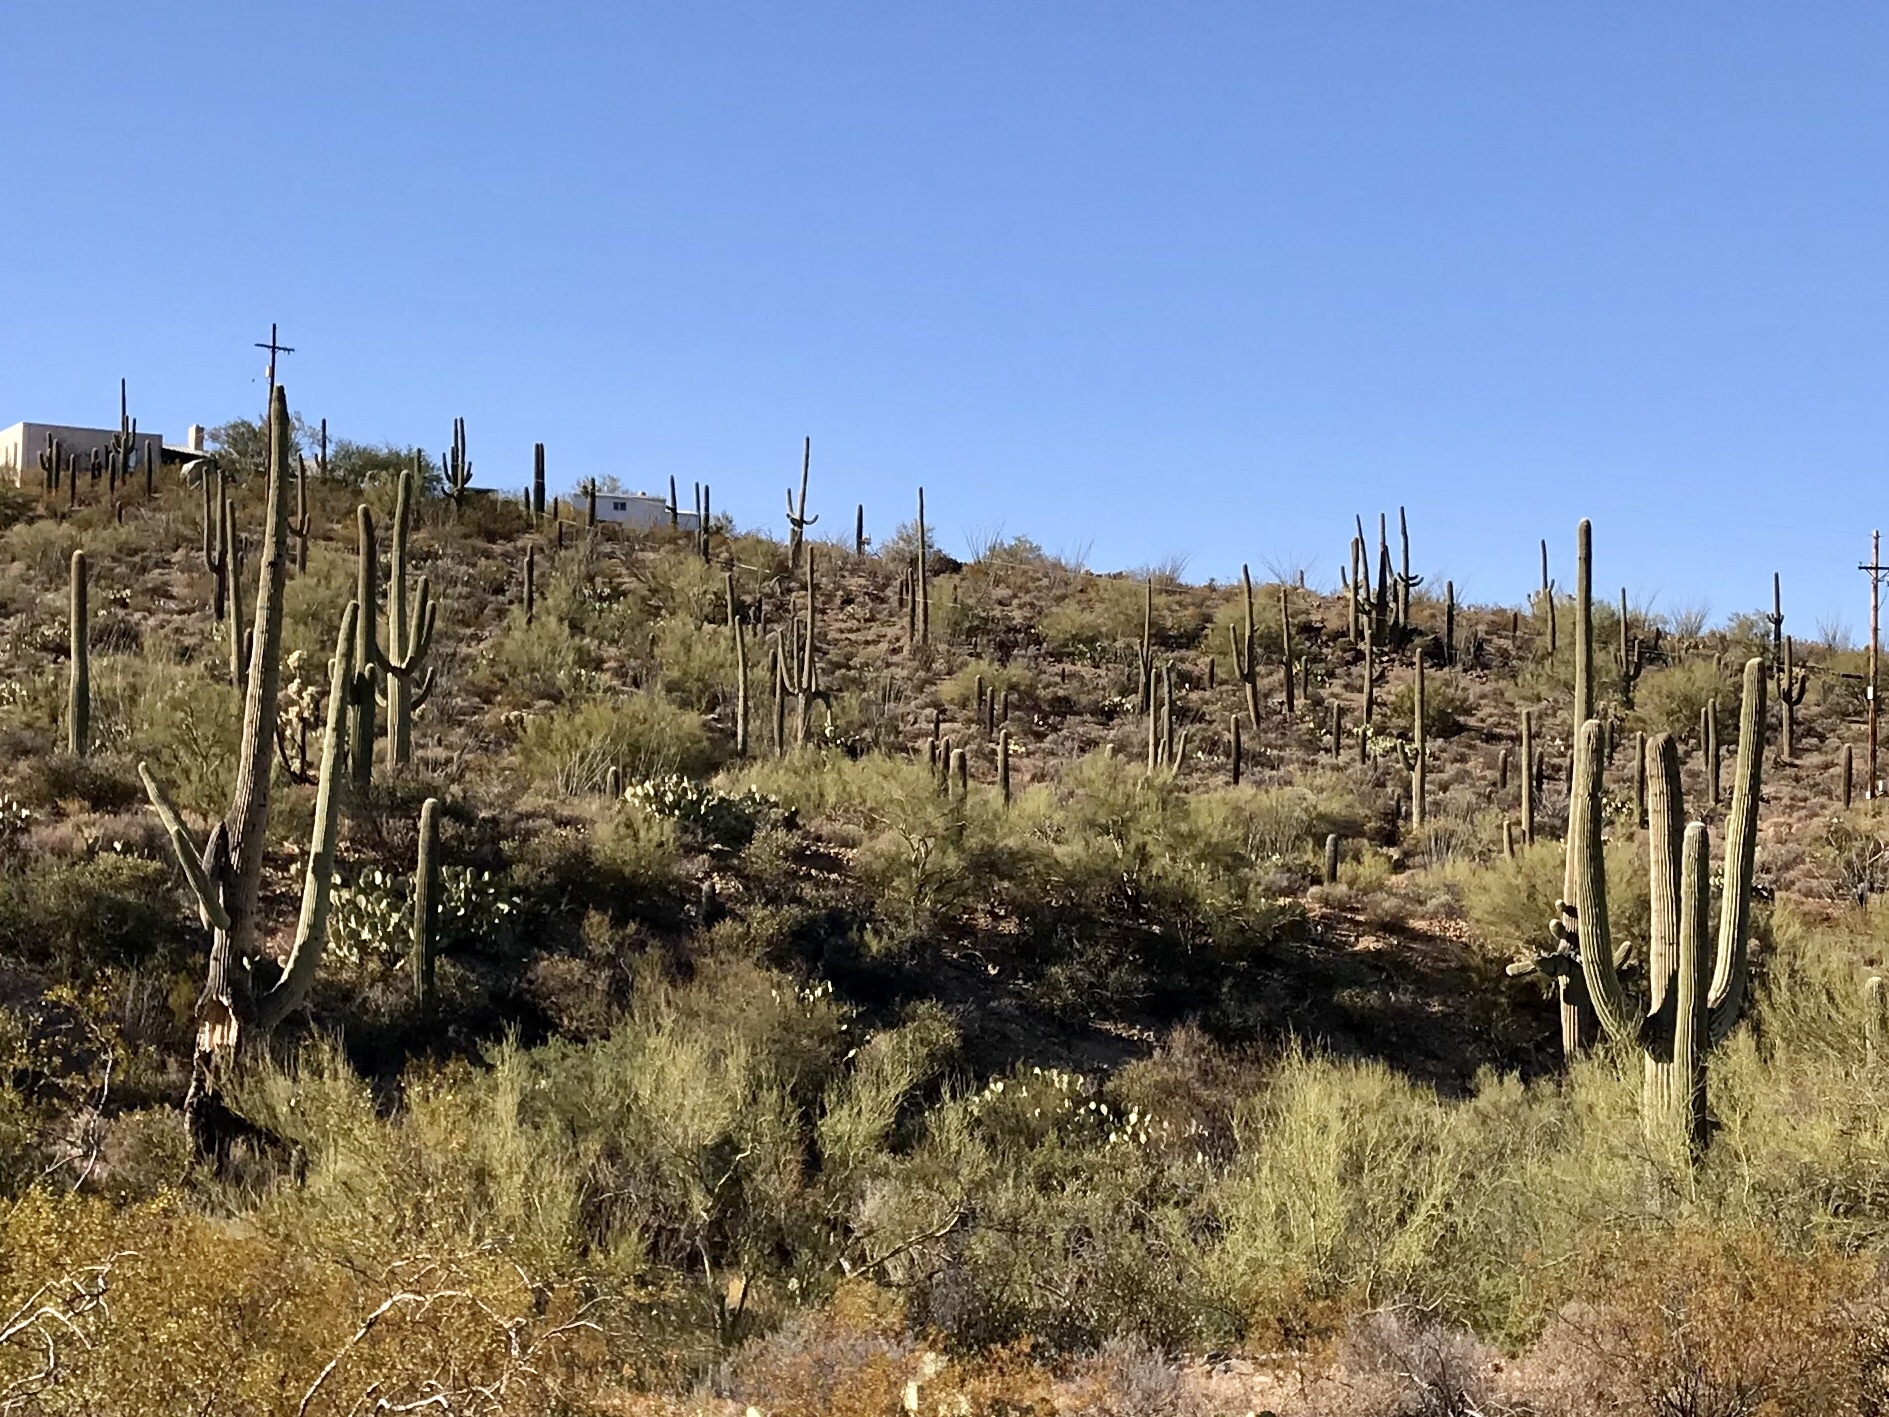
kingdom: Plantae
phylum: Tracheophyta
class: Magnoliopsida
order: Caryophyllales
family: Cactaceae
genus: Carnegiea
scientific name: Carnegiea gigantea
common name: Saguaro
